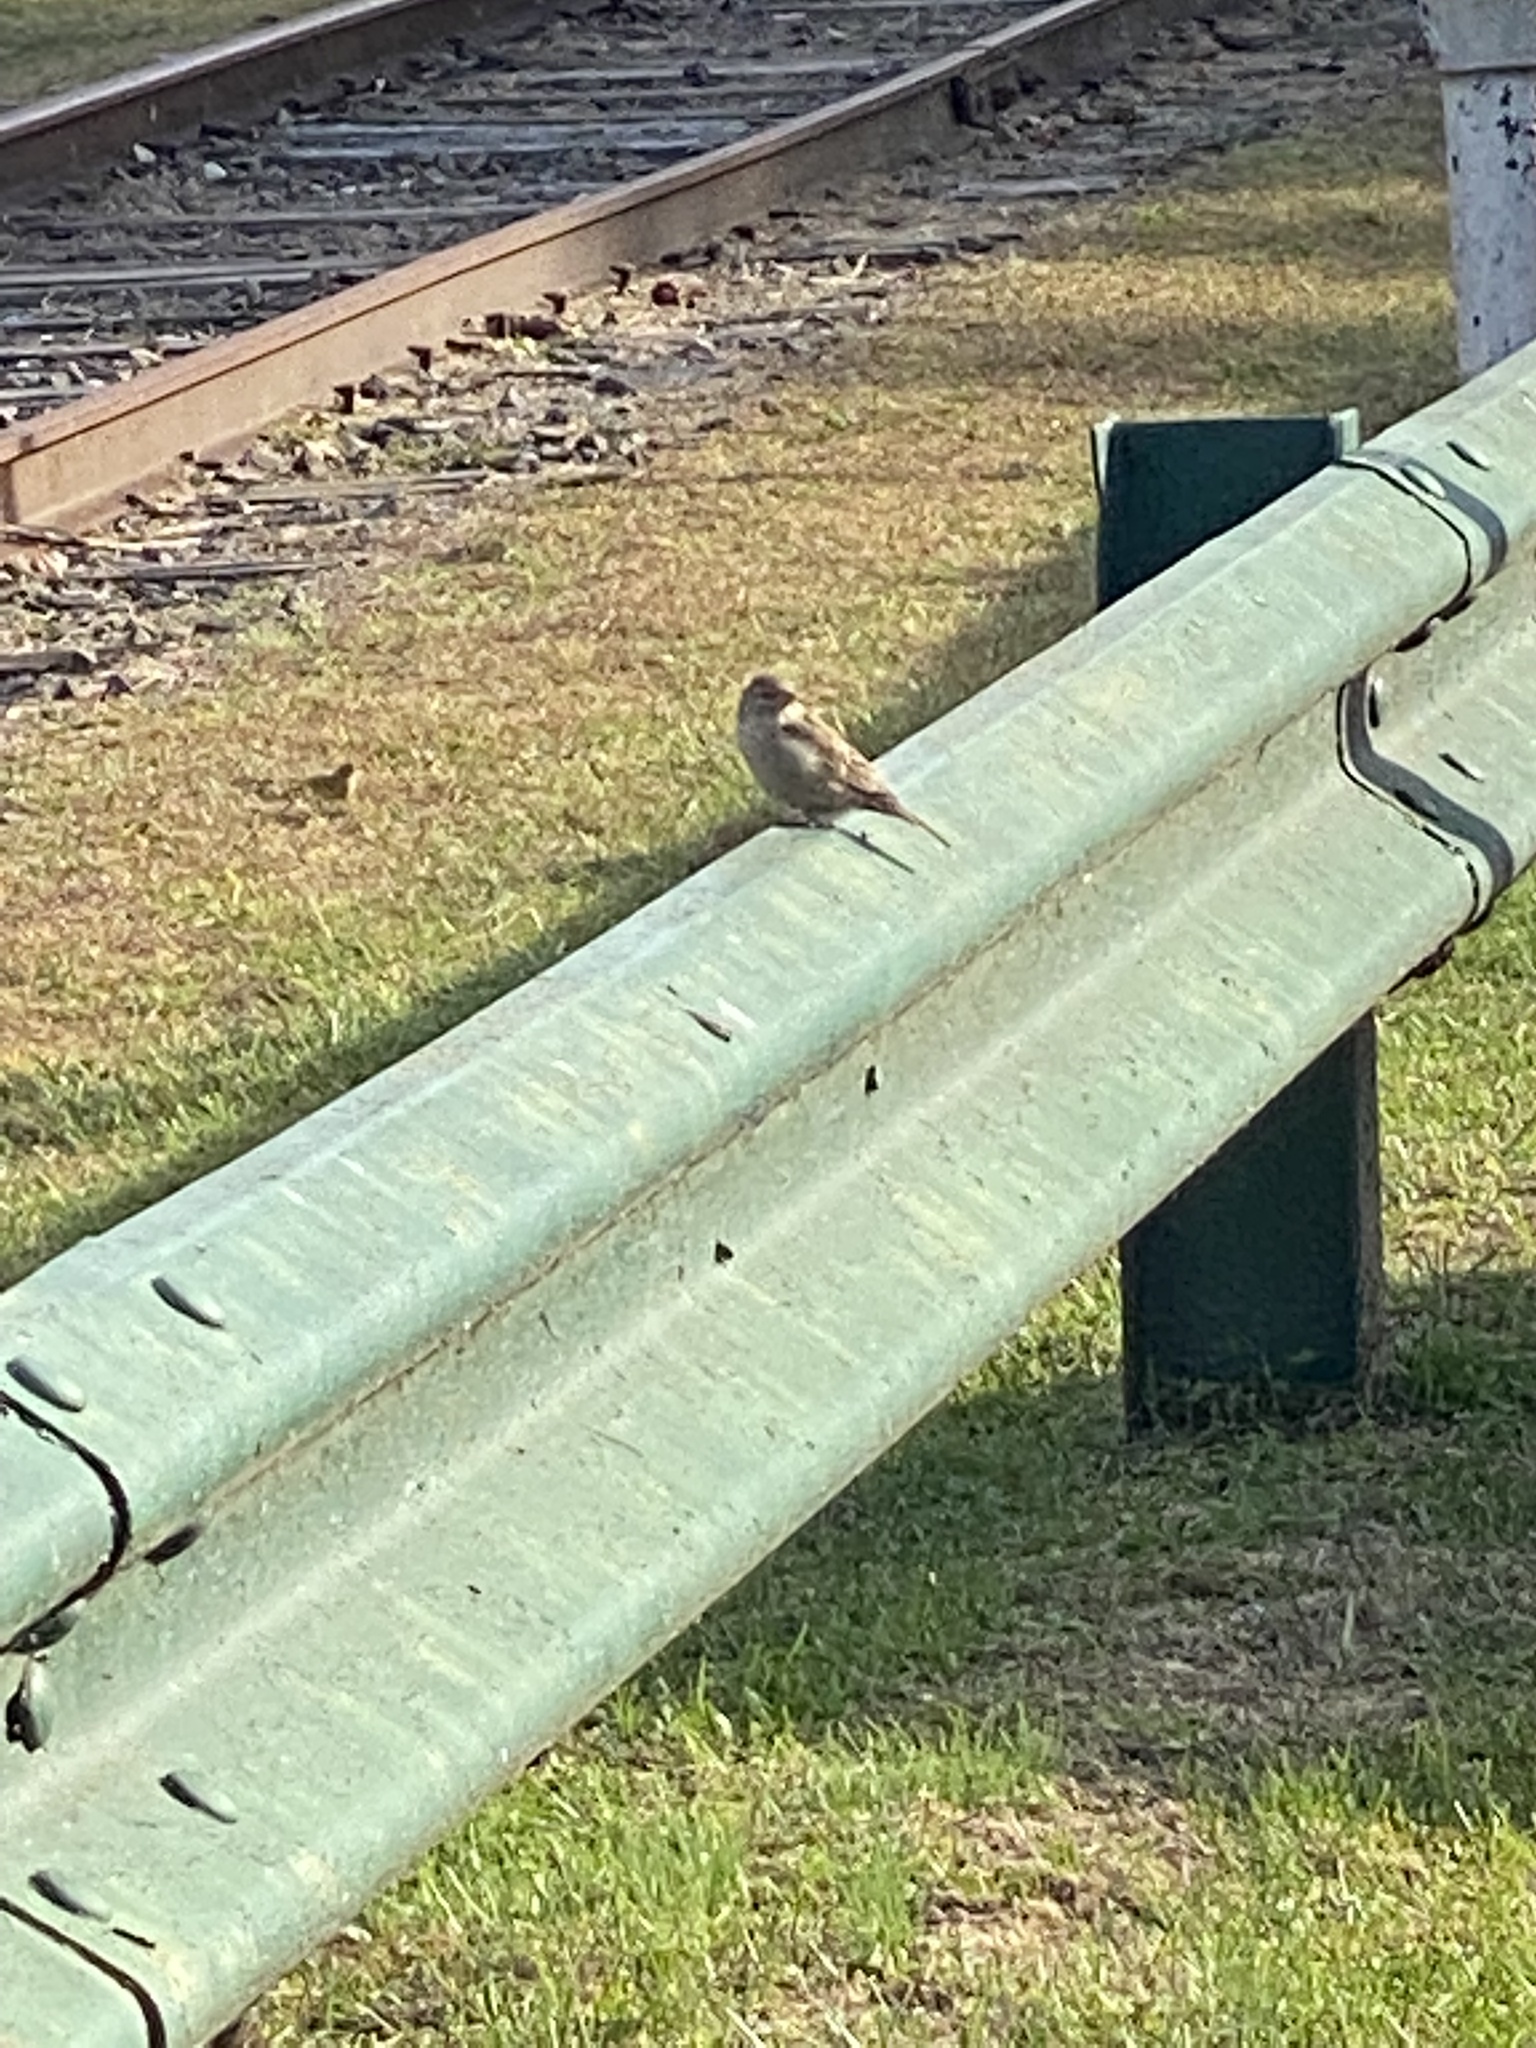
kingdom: Animalia
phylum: Chordata
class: Aves
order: Passeriformes
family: Passeridae
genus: Passer
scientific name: Passer domesticus
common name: House sparrow
